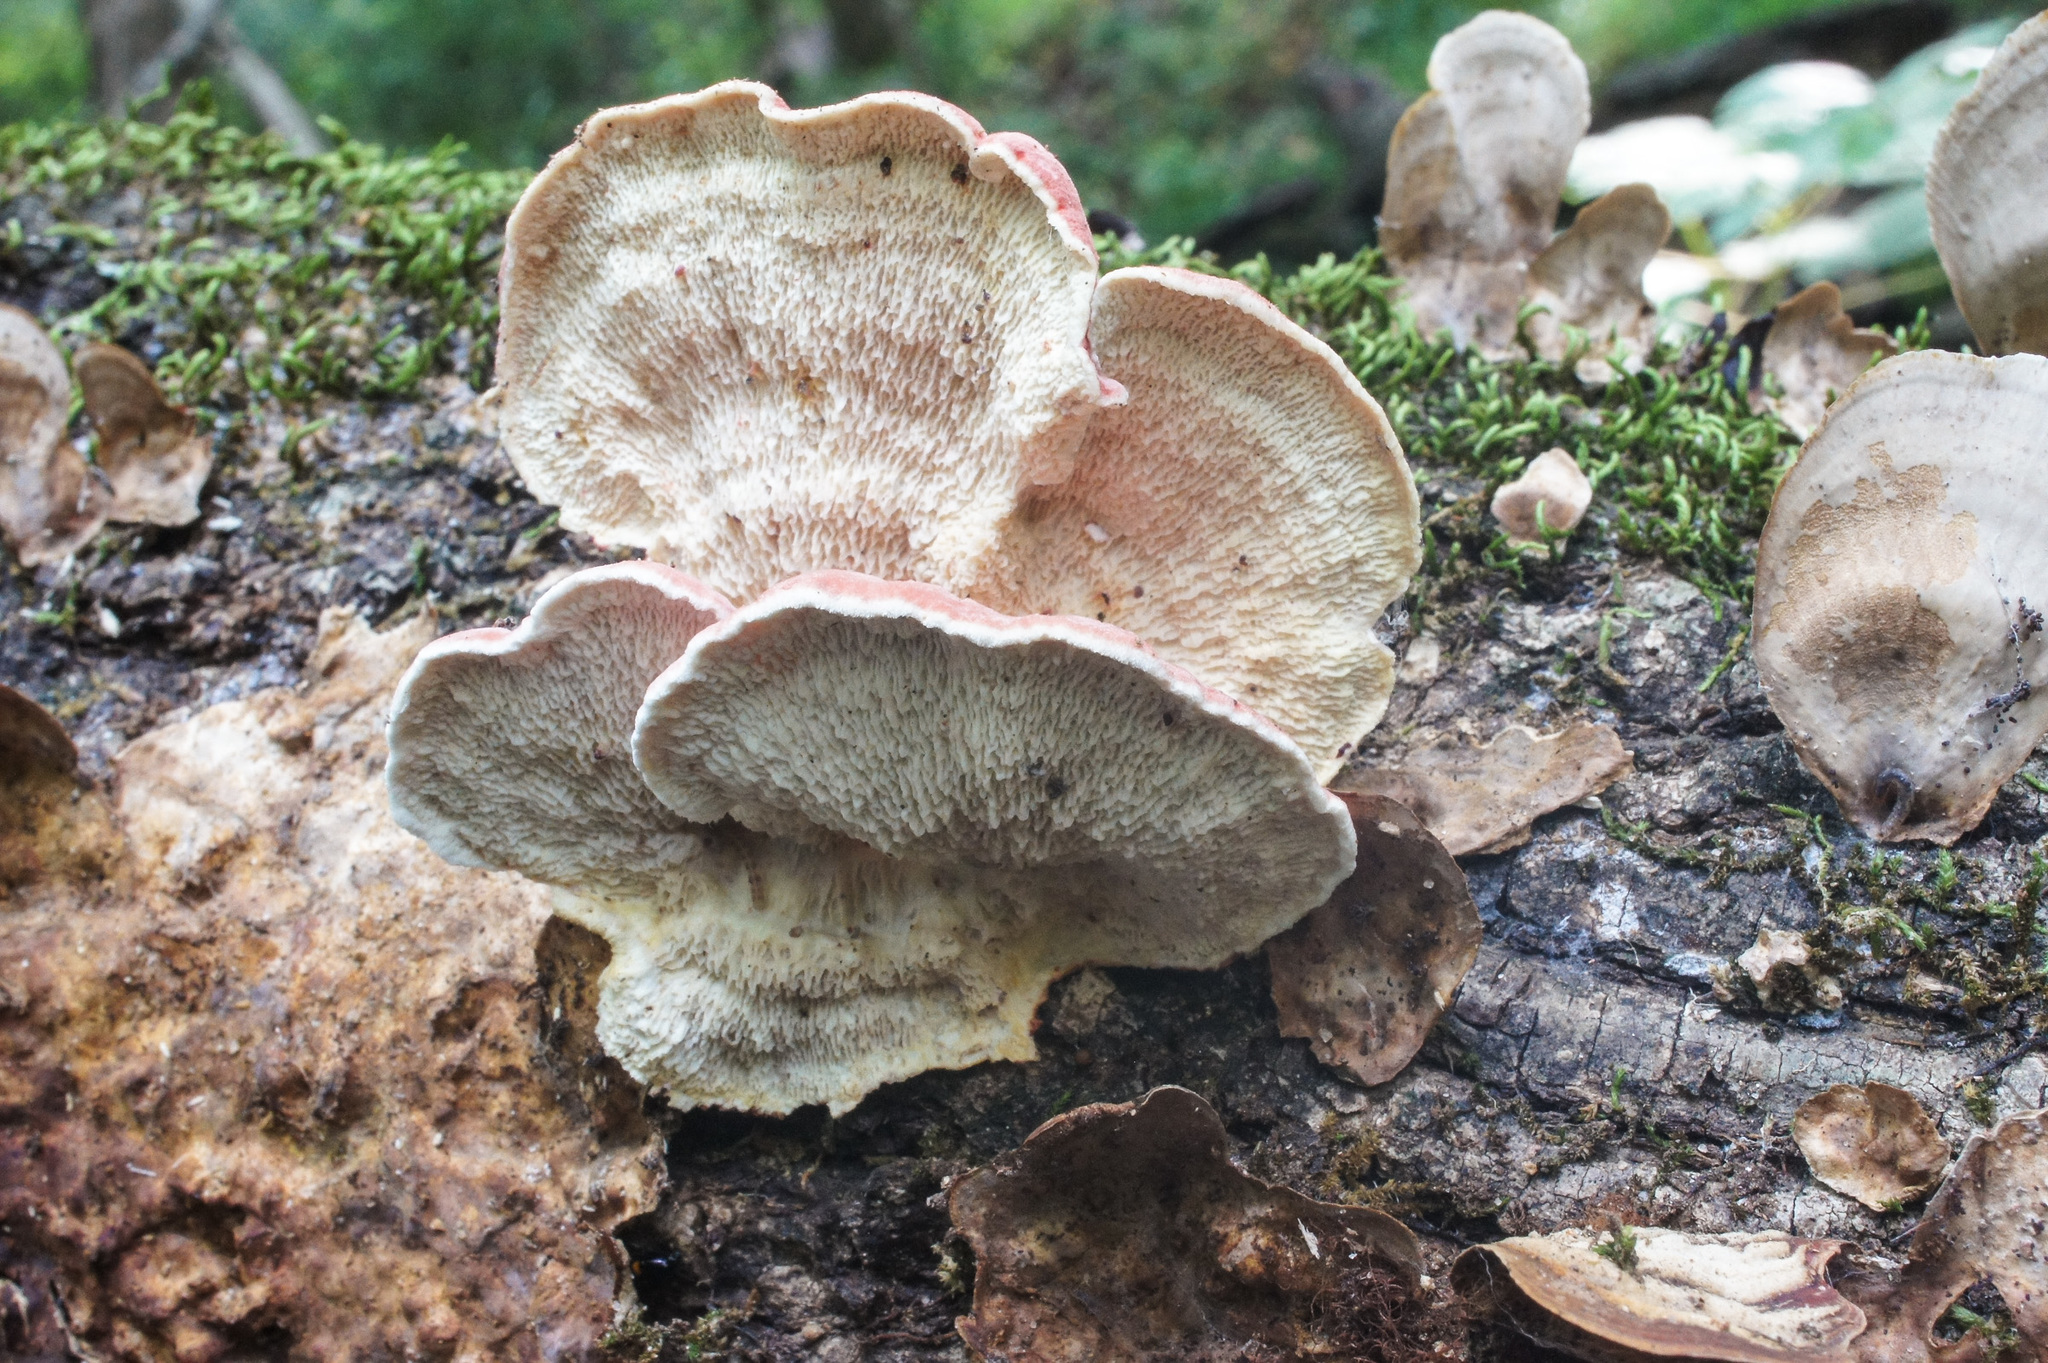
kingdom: Fungi
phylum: Basidiomycota
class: Agaricomycetes
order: Polyporales
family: Irpicaceae
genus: Byssomerulius
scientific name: Byssomerulius incarnatus
